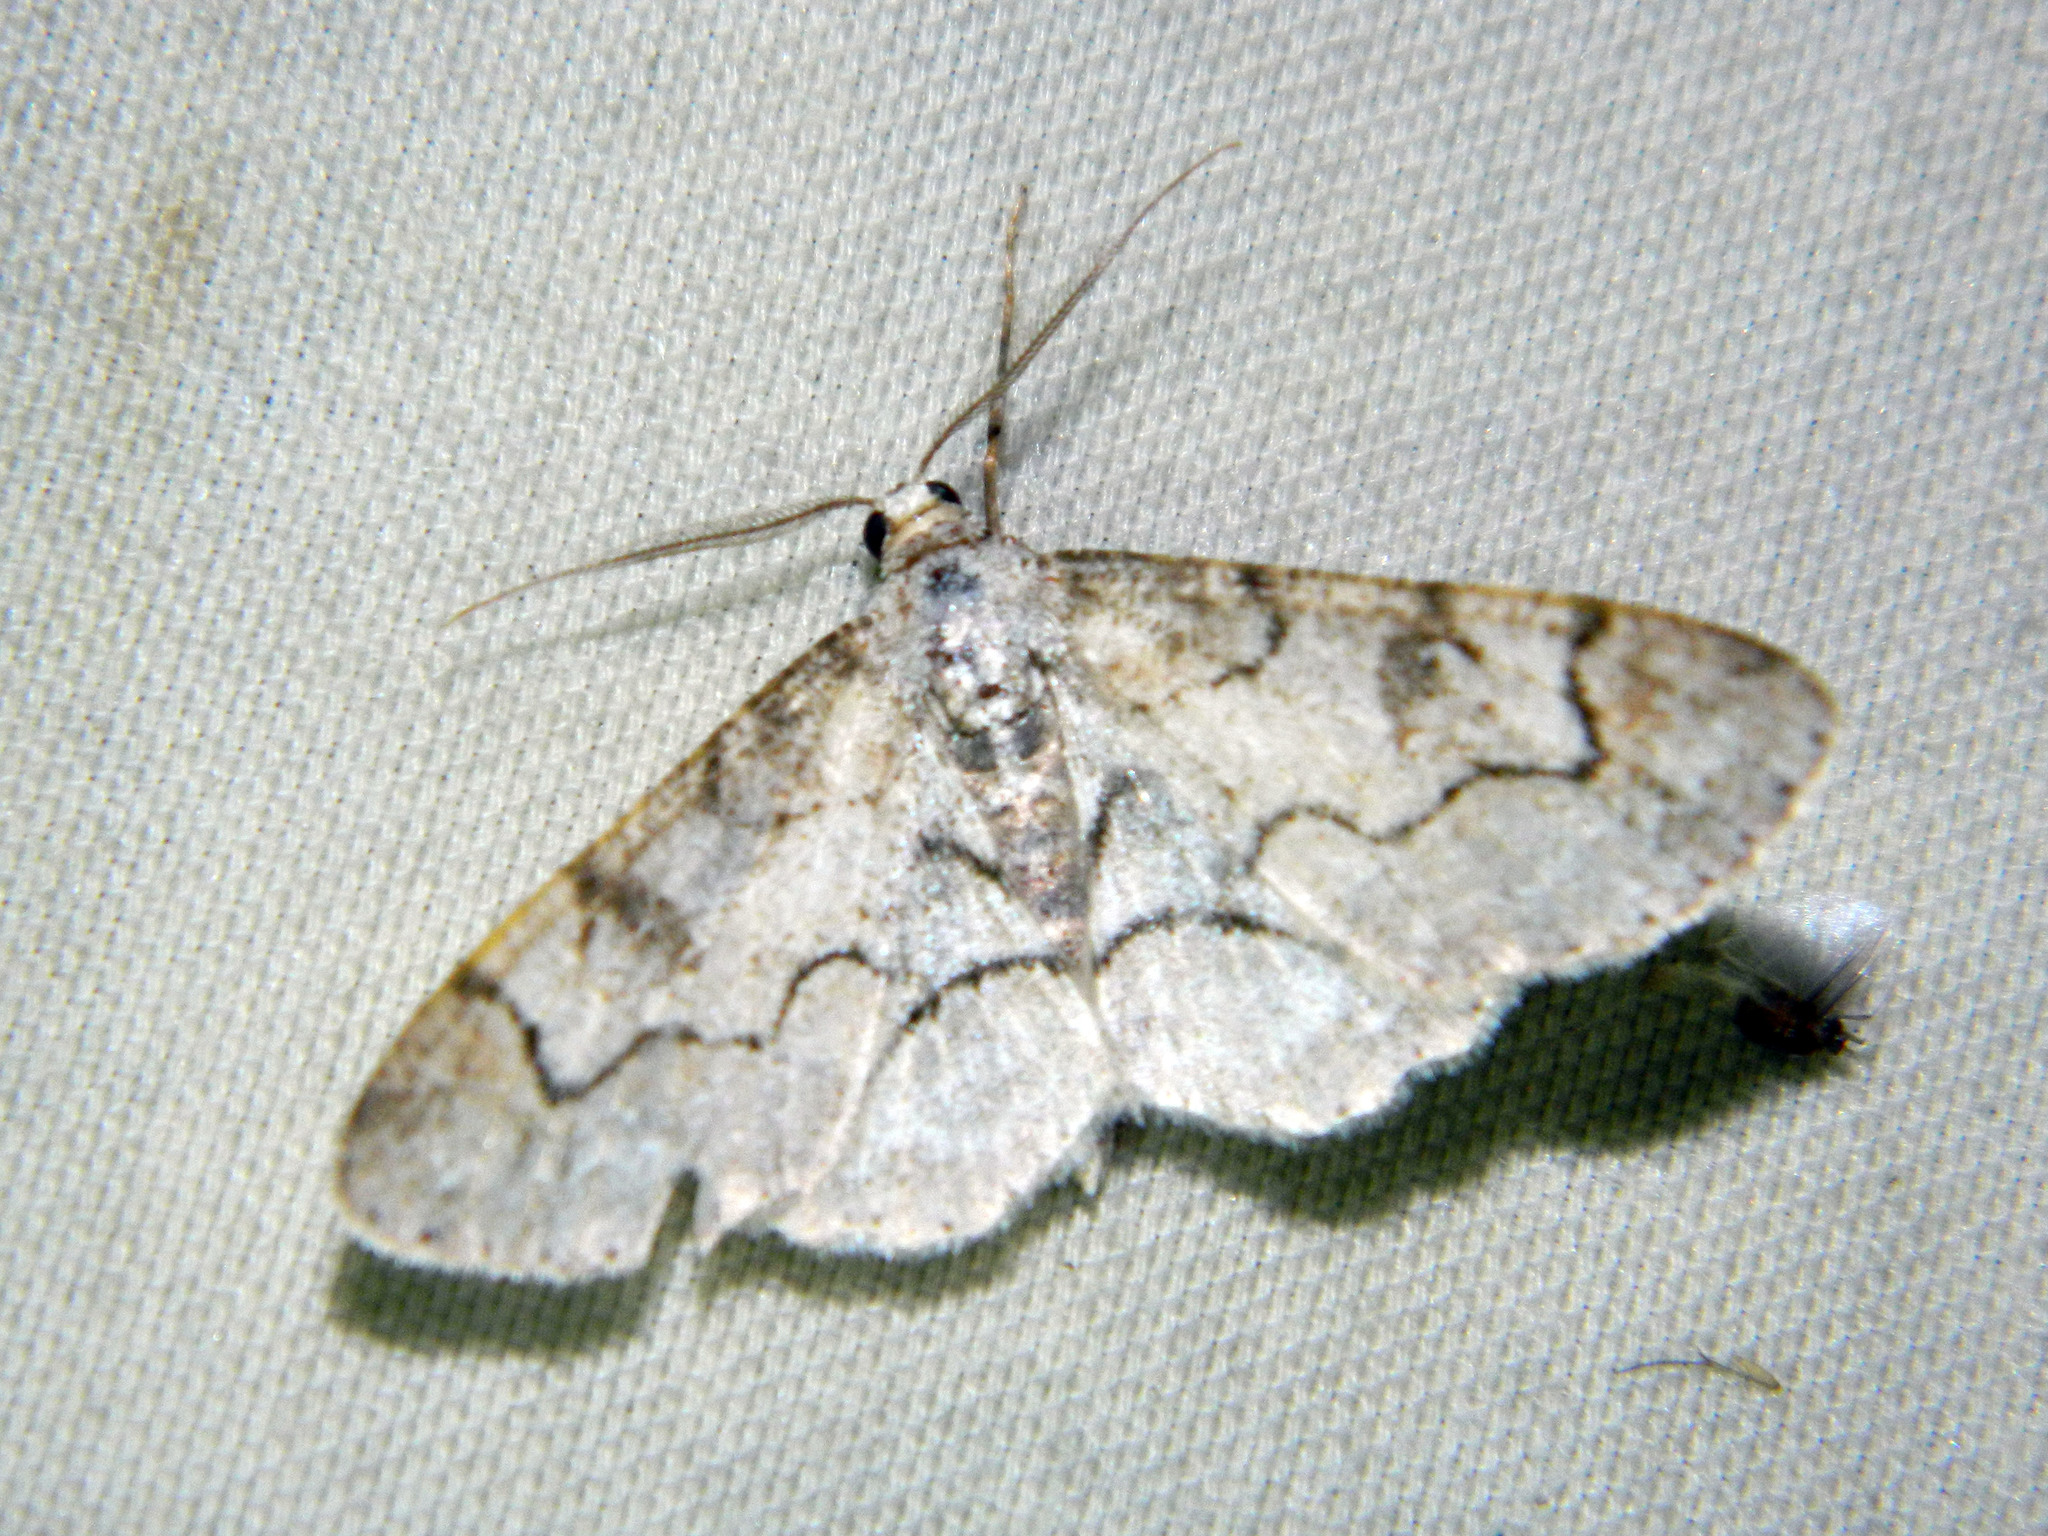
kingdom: Animalia
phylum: Arthropoda
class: Insecta
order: Lepidoptera
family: Geometridae
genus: Iridopsis
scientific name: Iridopsis larvaria
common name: Bent-line gray
